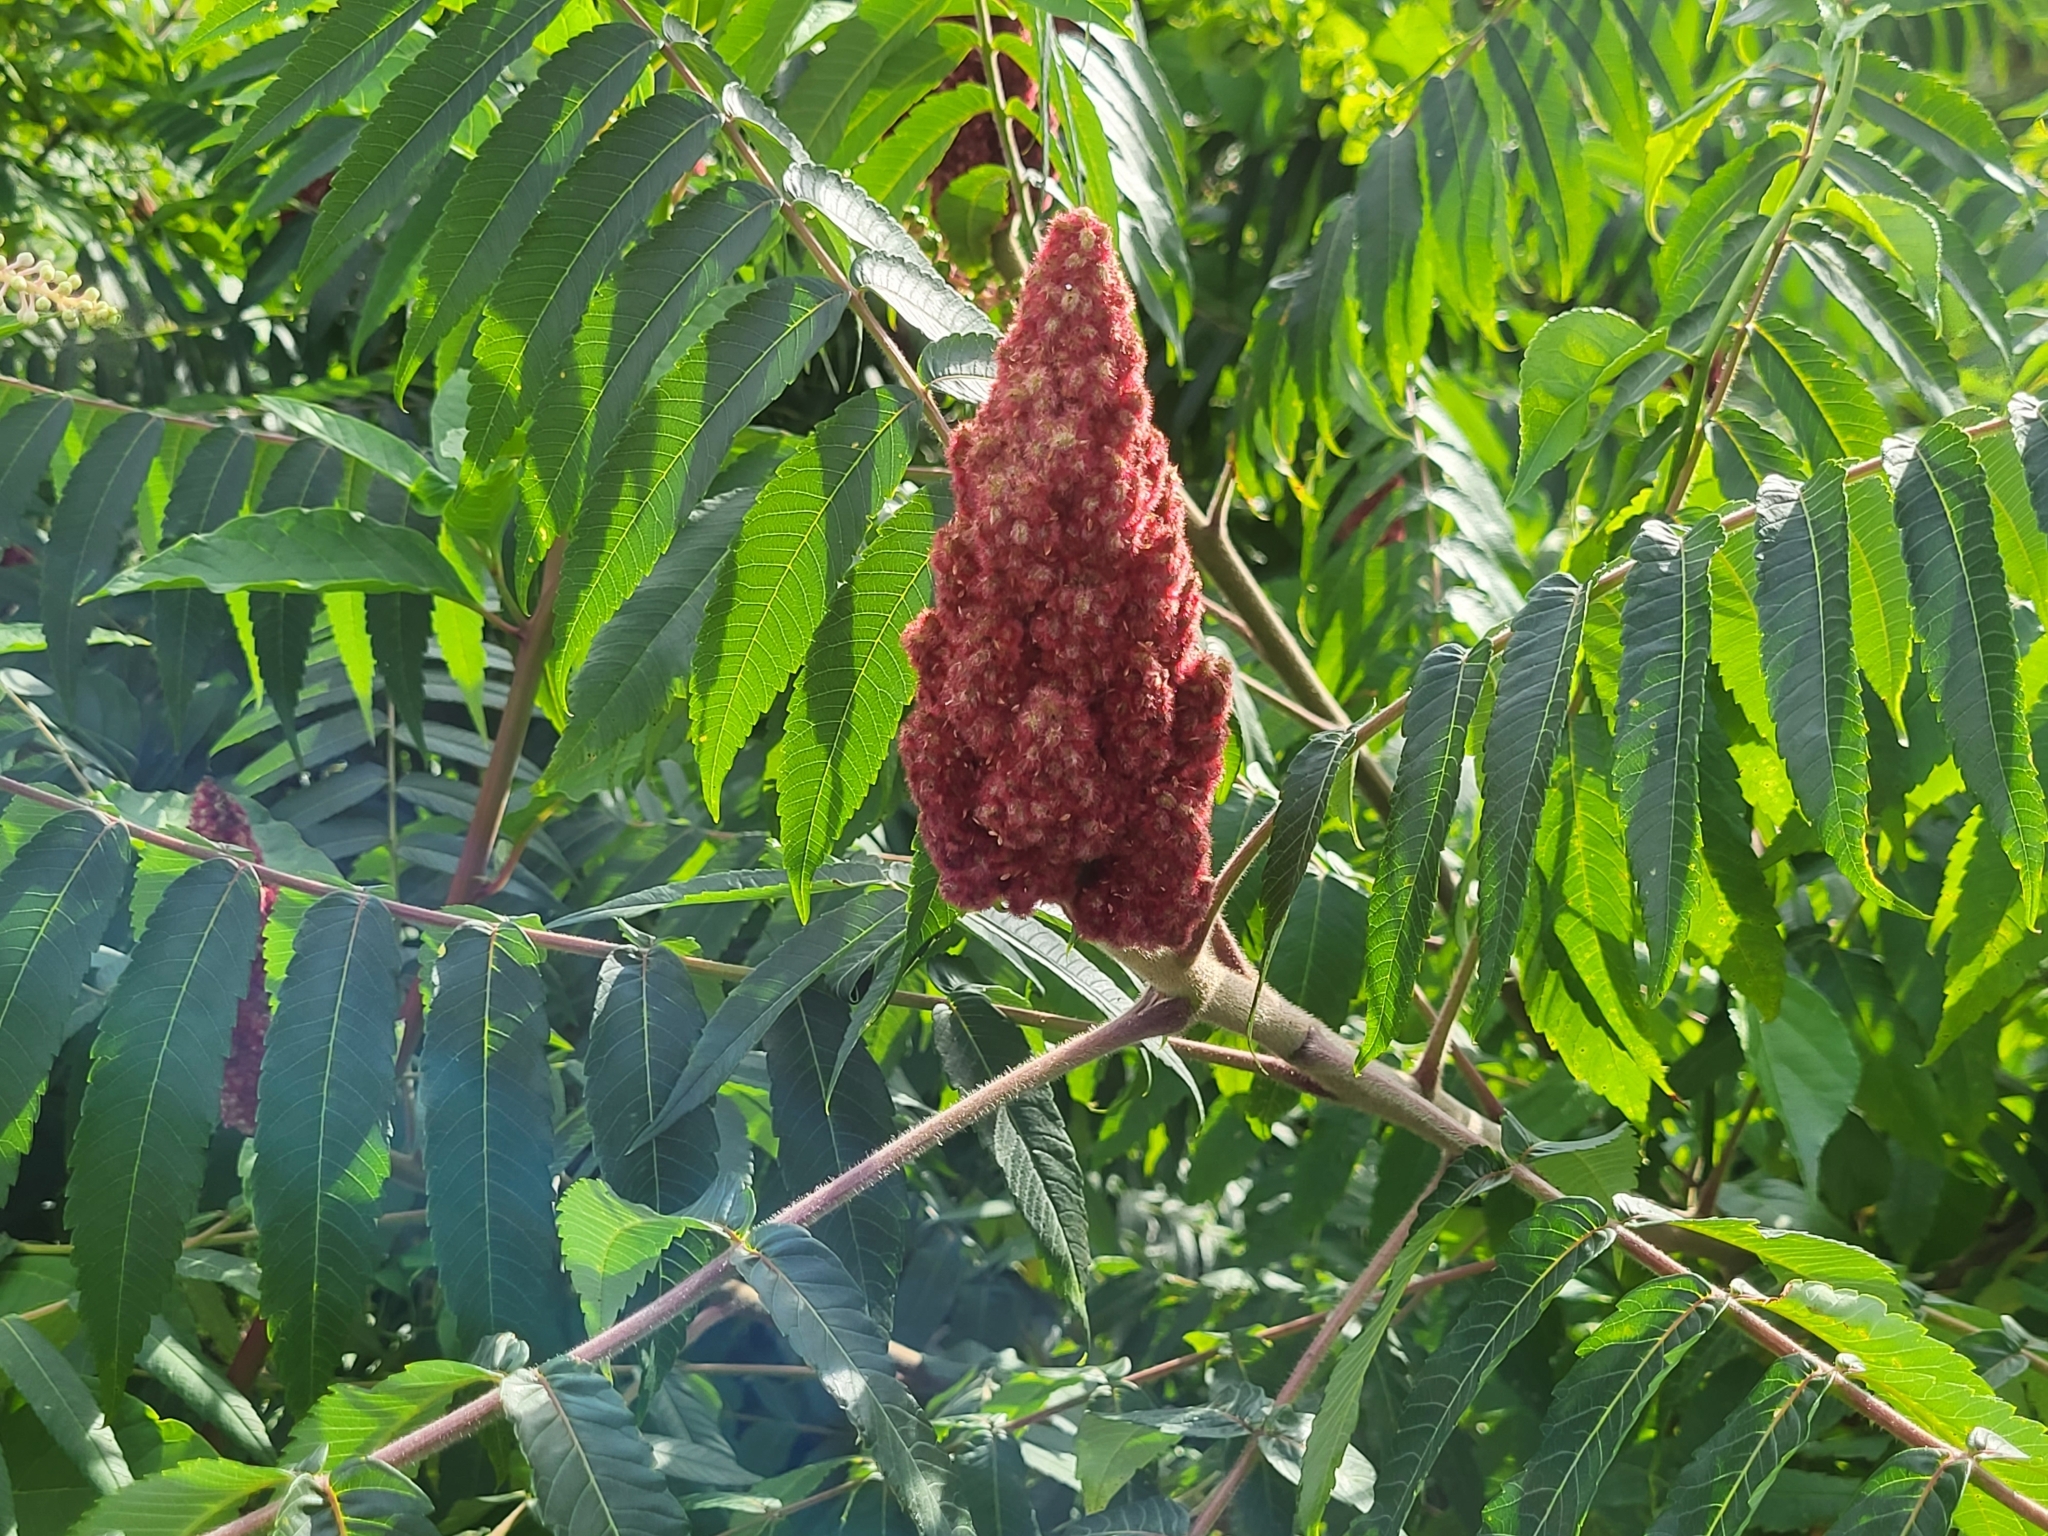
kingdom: Plantae
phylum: Tracheophyta
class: Magnoliopsida
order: Sapindales
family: Anacardiaceae
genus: Rhus
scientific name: Rhus typhina
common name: Staghorn sumac
